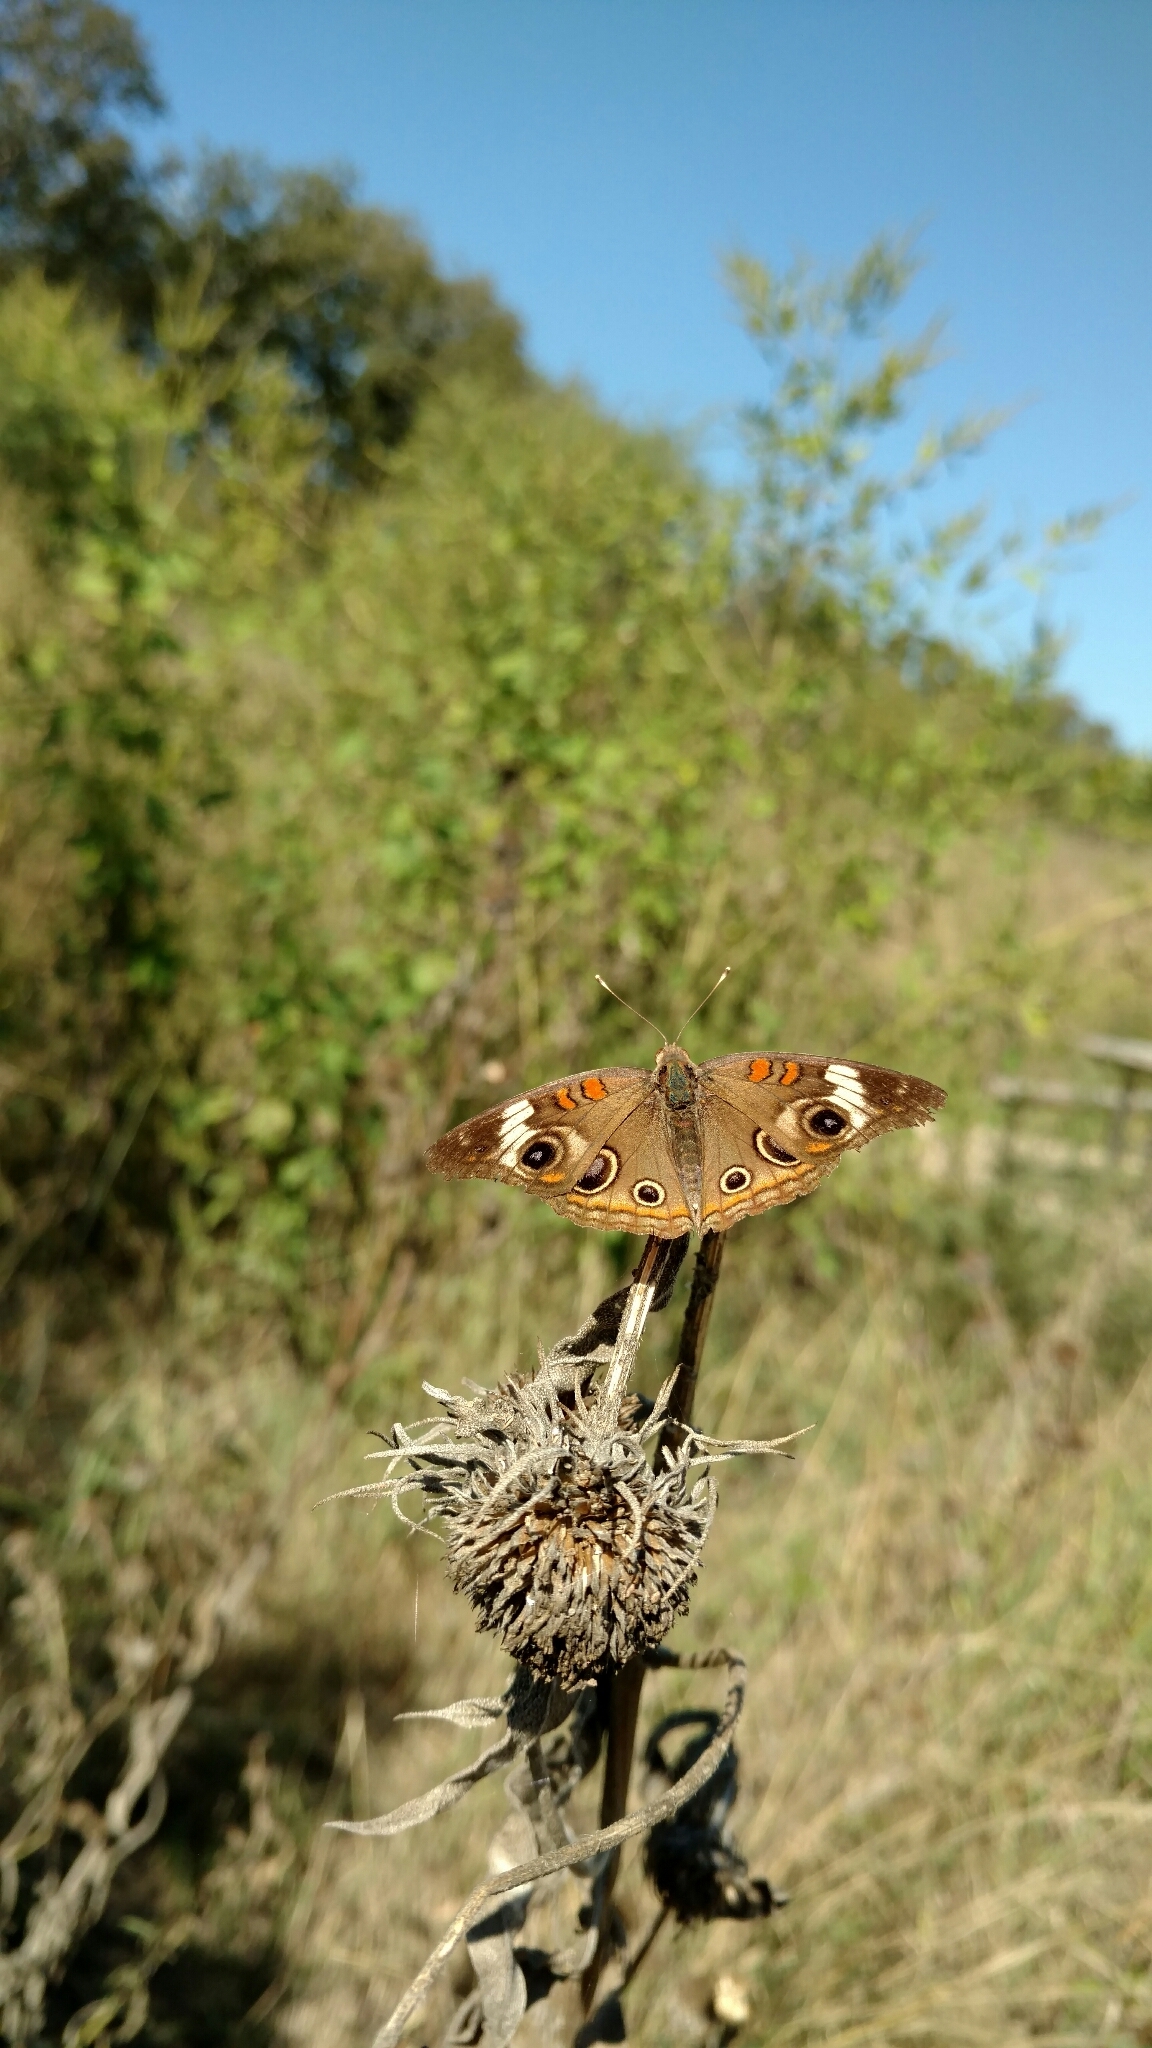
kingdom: Animalia
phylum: Arthropoda
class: Insecta
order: Lepidoptera
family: Nymphalidae
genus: Junonia
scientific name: Junonia coenia
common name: Common buckeye
